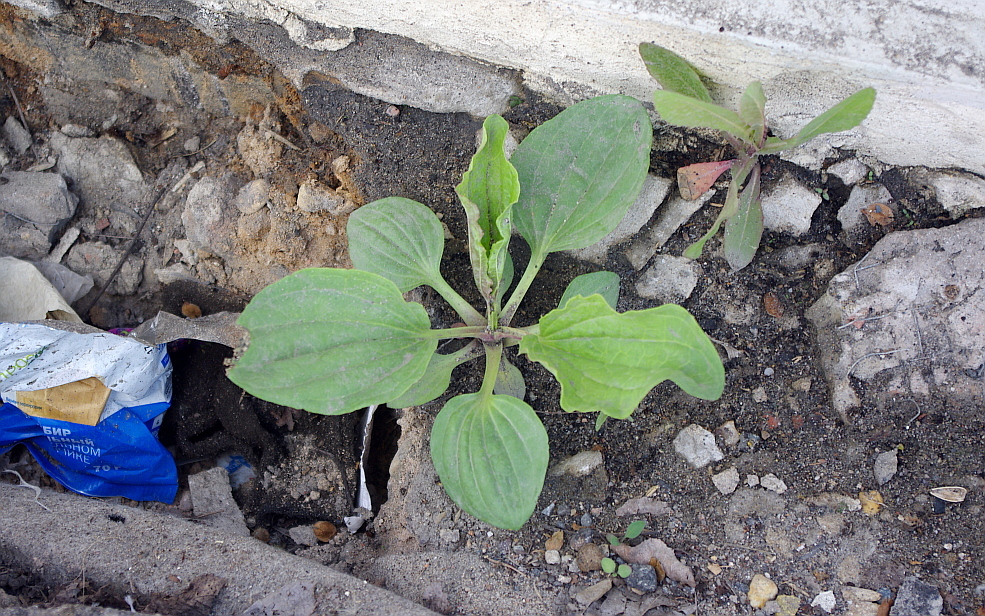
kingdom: Plantae
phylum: Tracheophyta
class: Magnoliopsida
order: Lamiales
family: Plantaginaceae
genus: Plantago
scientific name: Plantago major
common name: Common plantain
